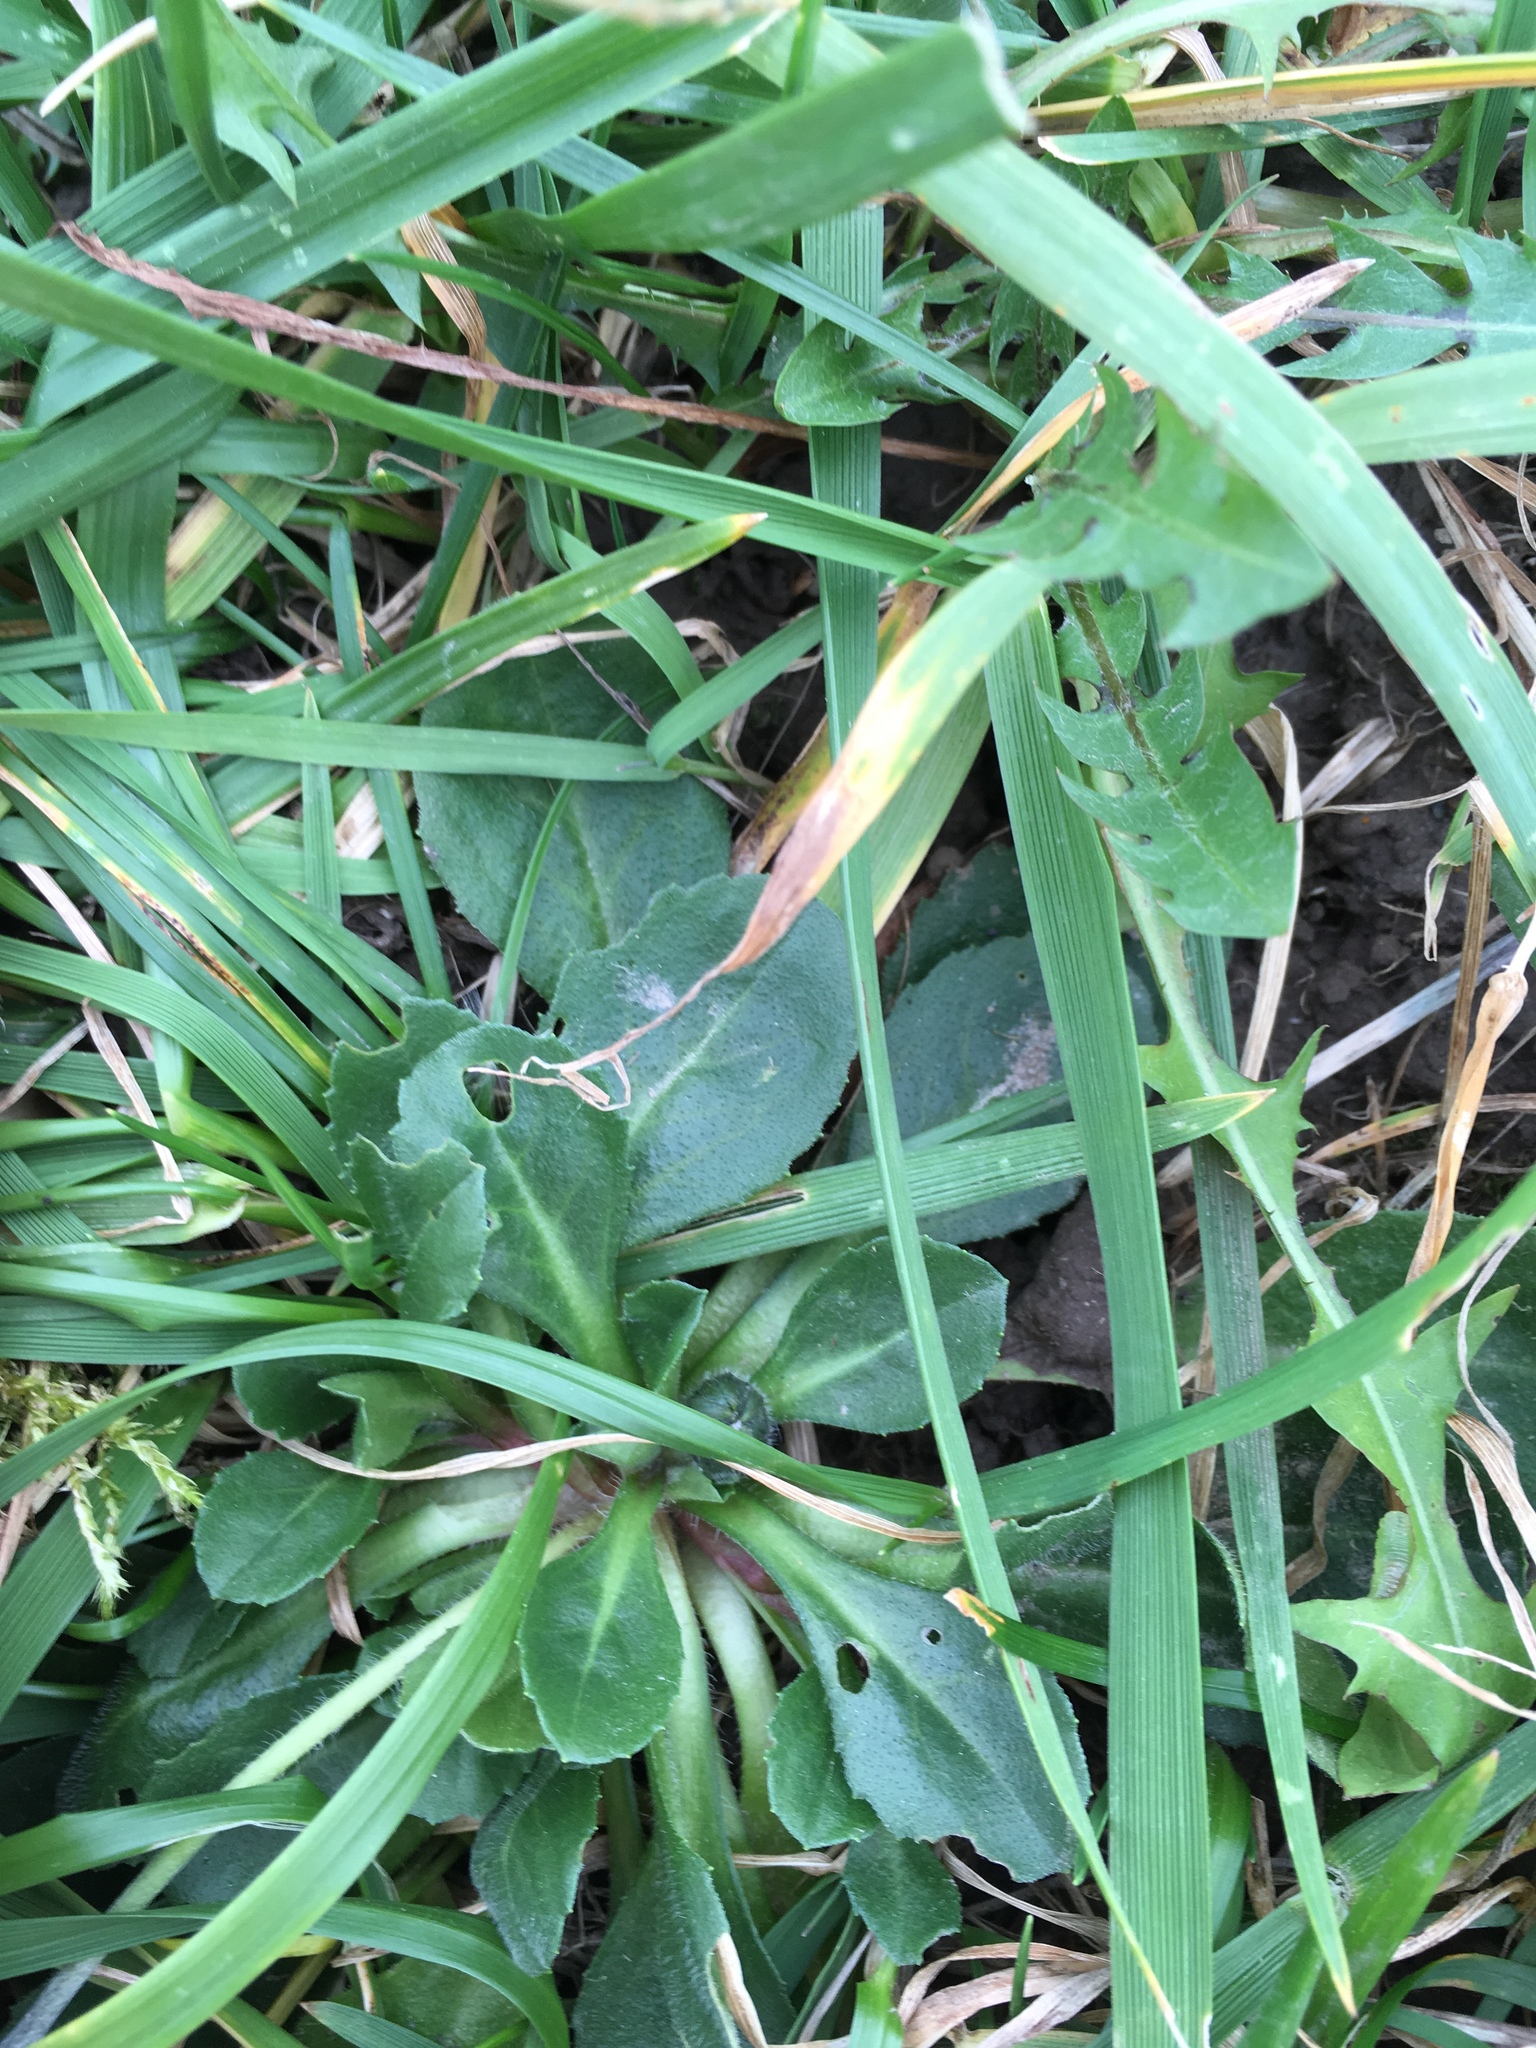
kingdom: Plantae
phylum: Tracheophyta
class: Magnoliopsida
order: Asterales
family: Asteraceae
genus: Bellis
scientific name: Bellis perennis
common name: Lawndaisy
